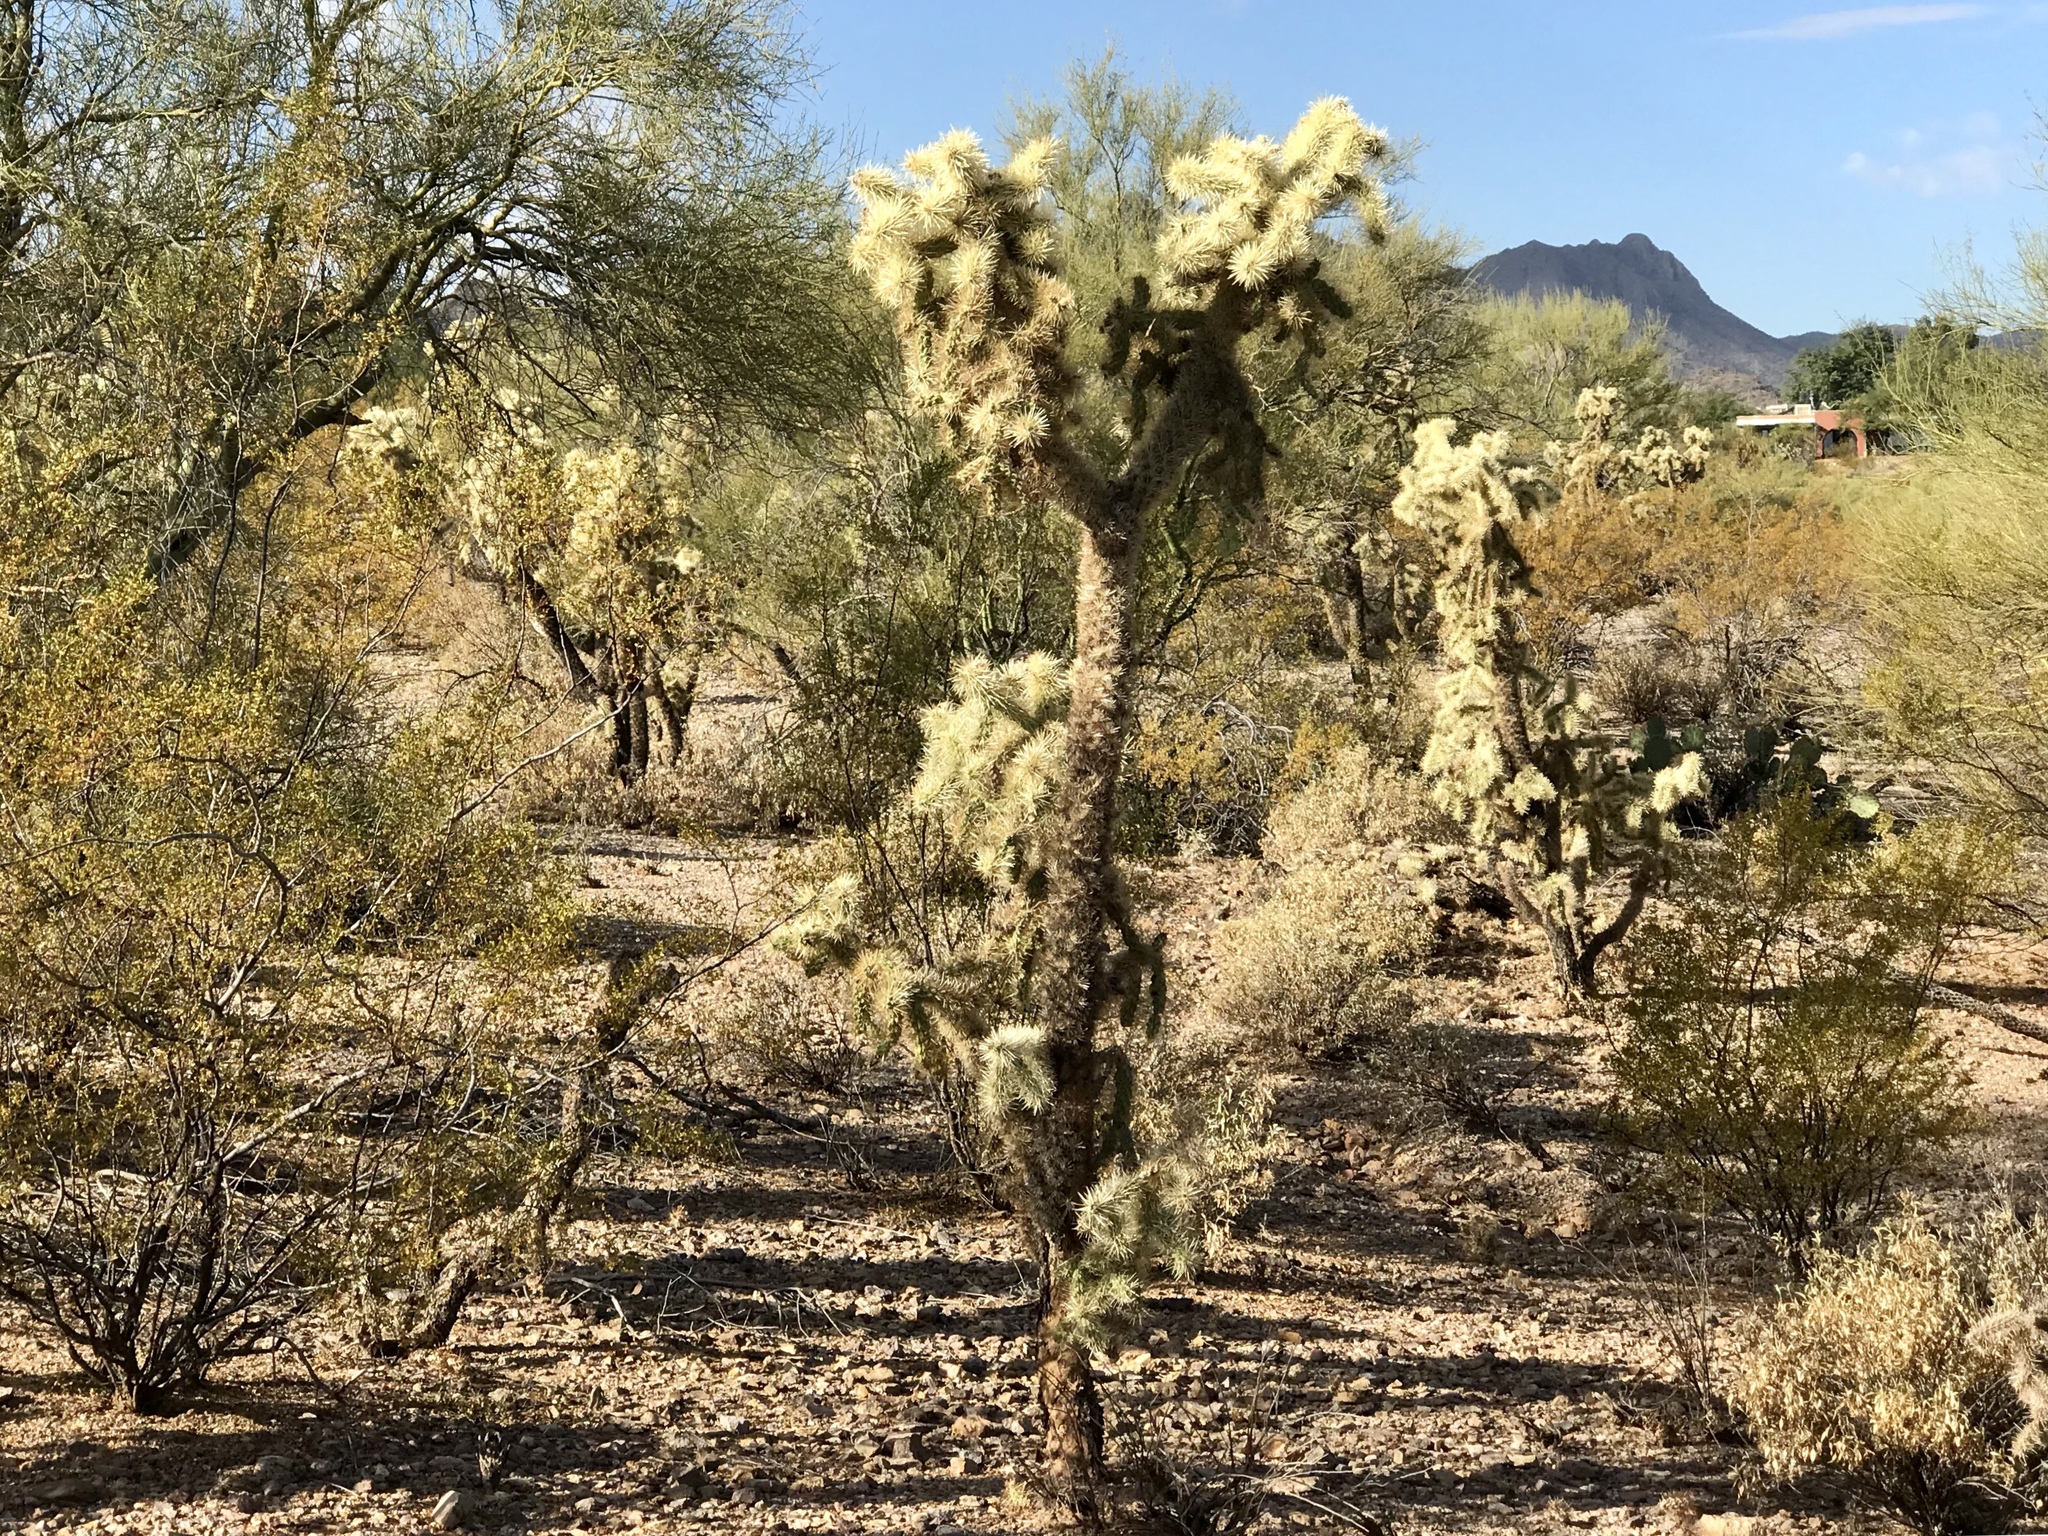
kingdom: Plantae
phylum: Tracheophyta
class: Magnoliopsida
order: Caryophyllales
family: Cactaceae
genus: Cylindropuntia
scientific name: Cylindropuntia fulgida
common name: Jumping cholla
